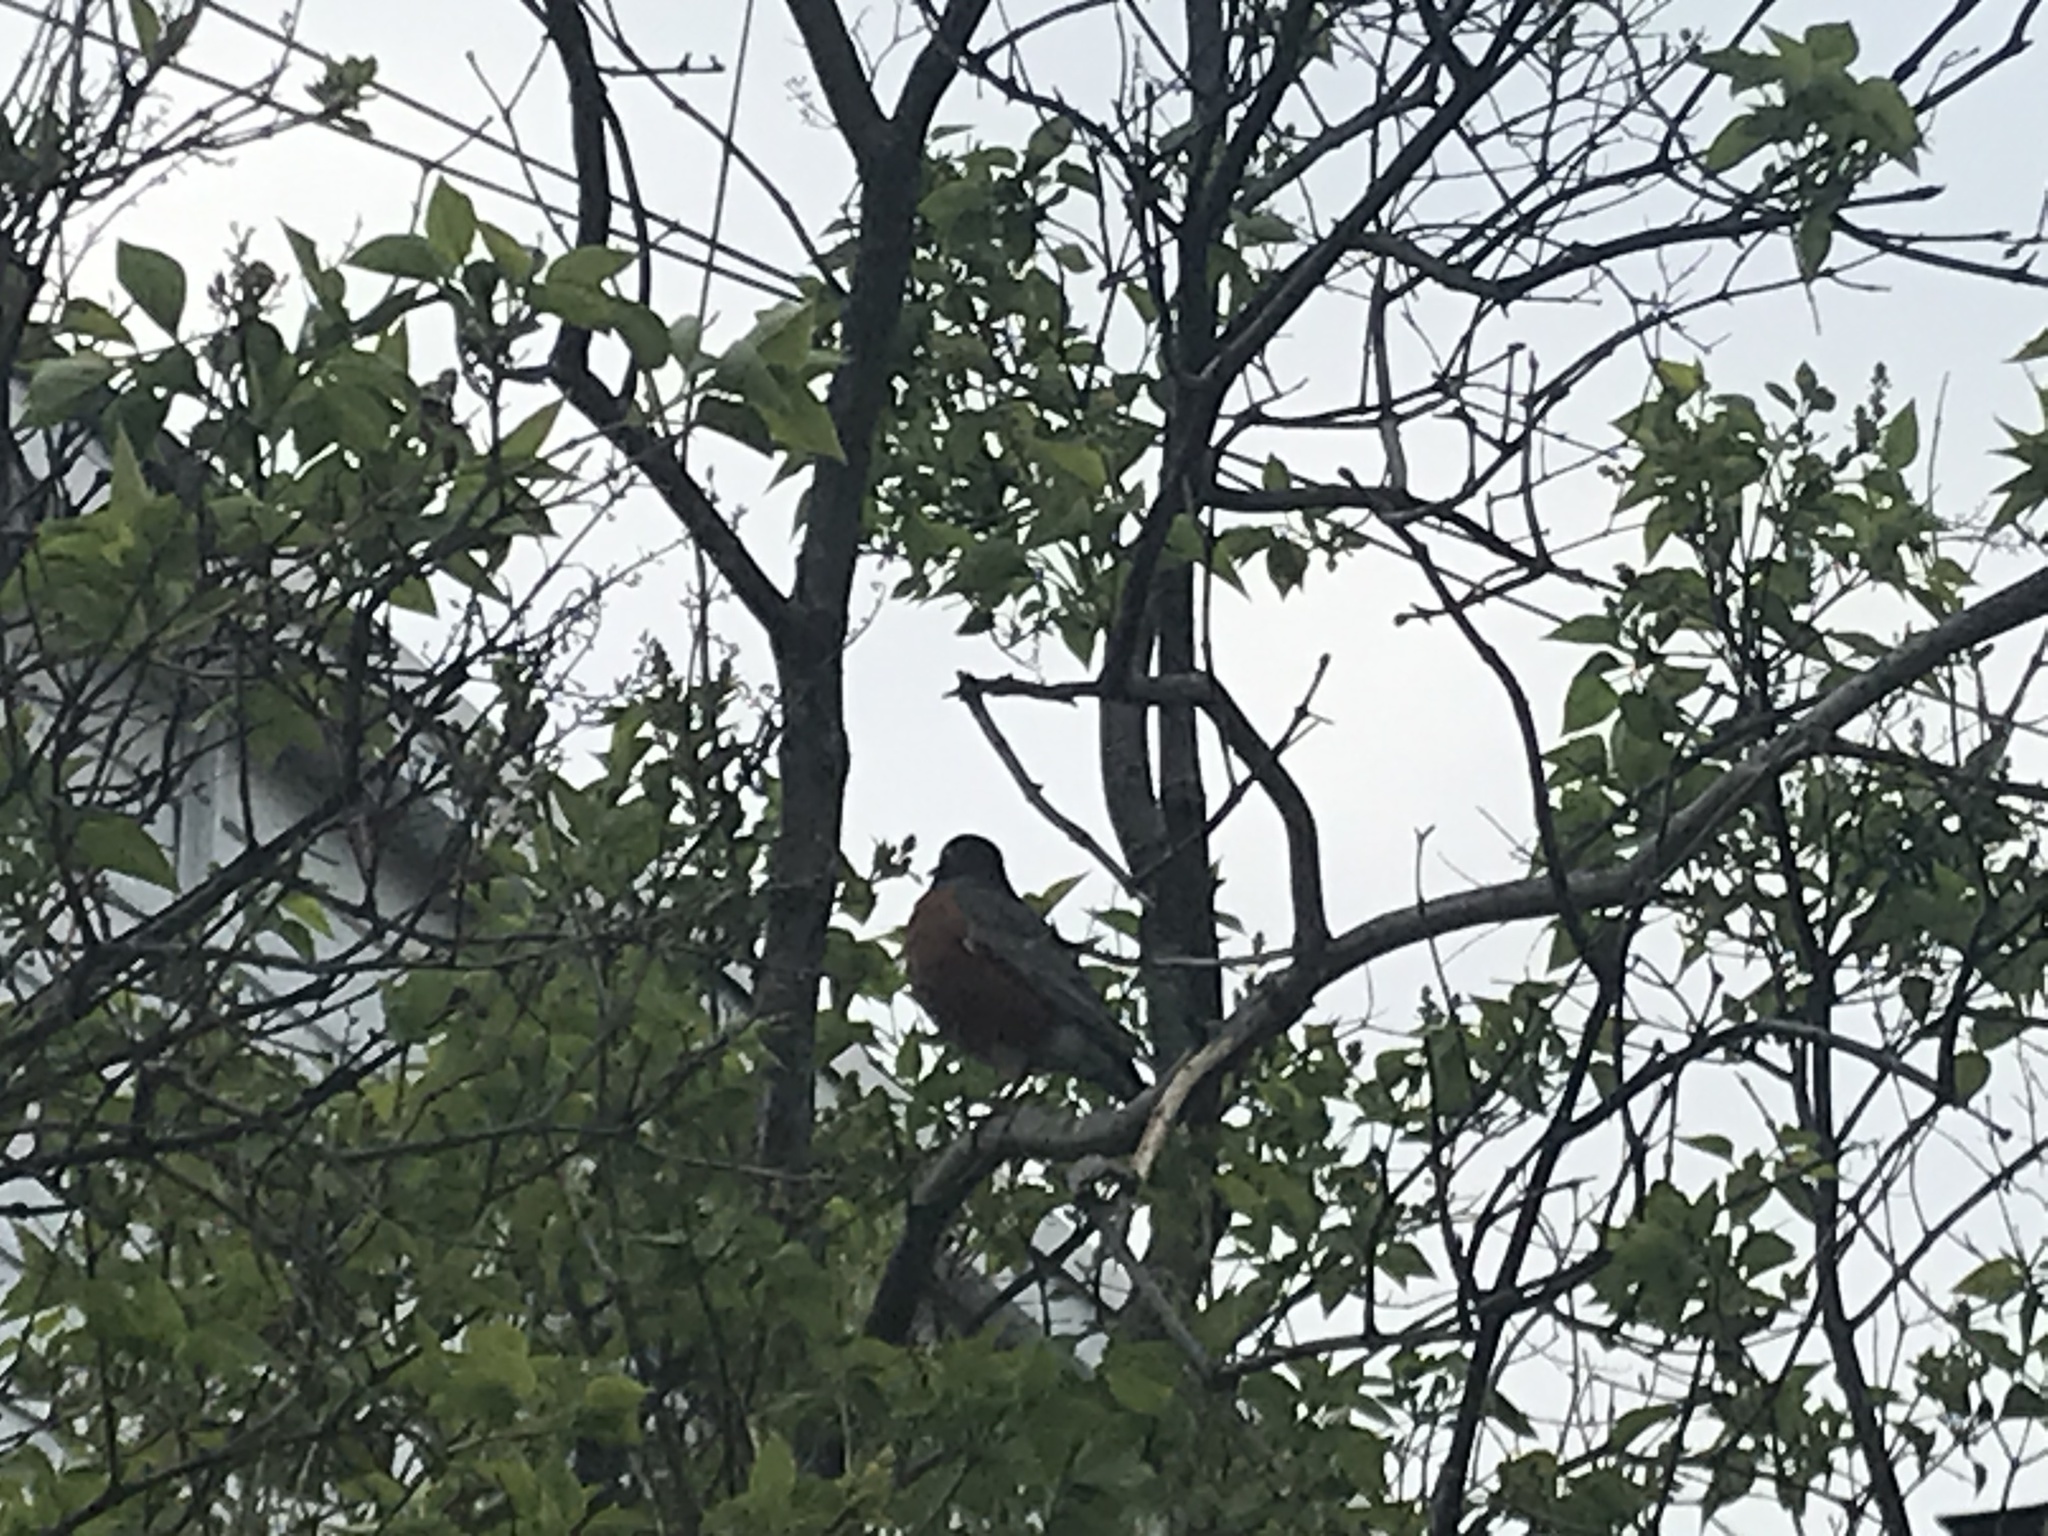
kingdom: Animalia
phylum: Chordata
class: Aves
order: Passeriformes
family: Turdidae
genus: Turdus
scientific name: Turdus migratorius
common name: American robin
